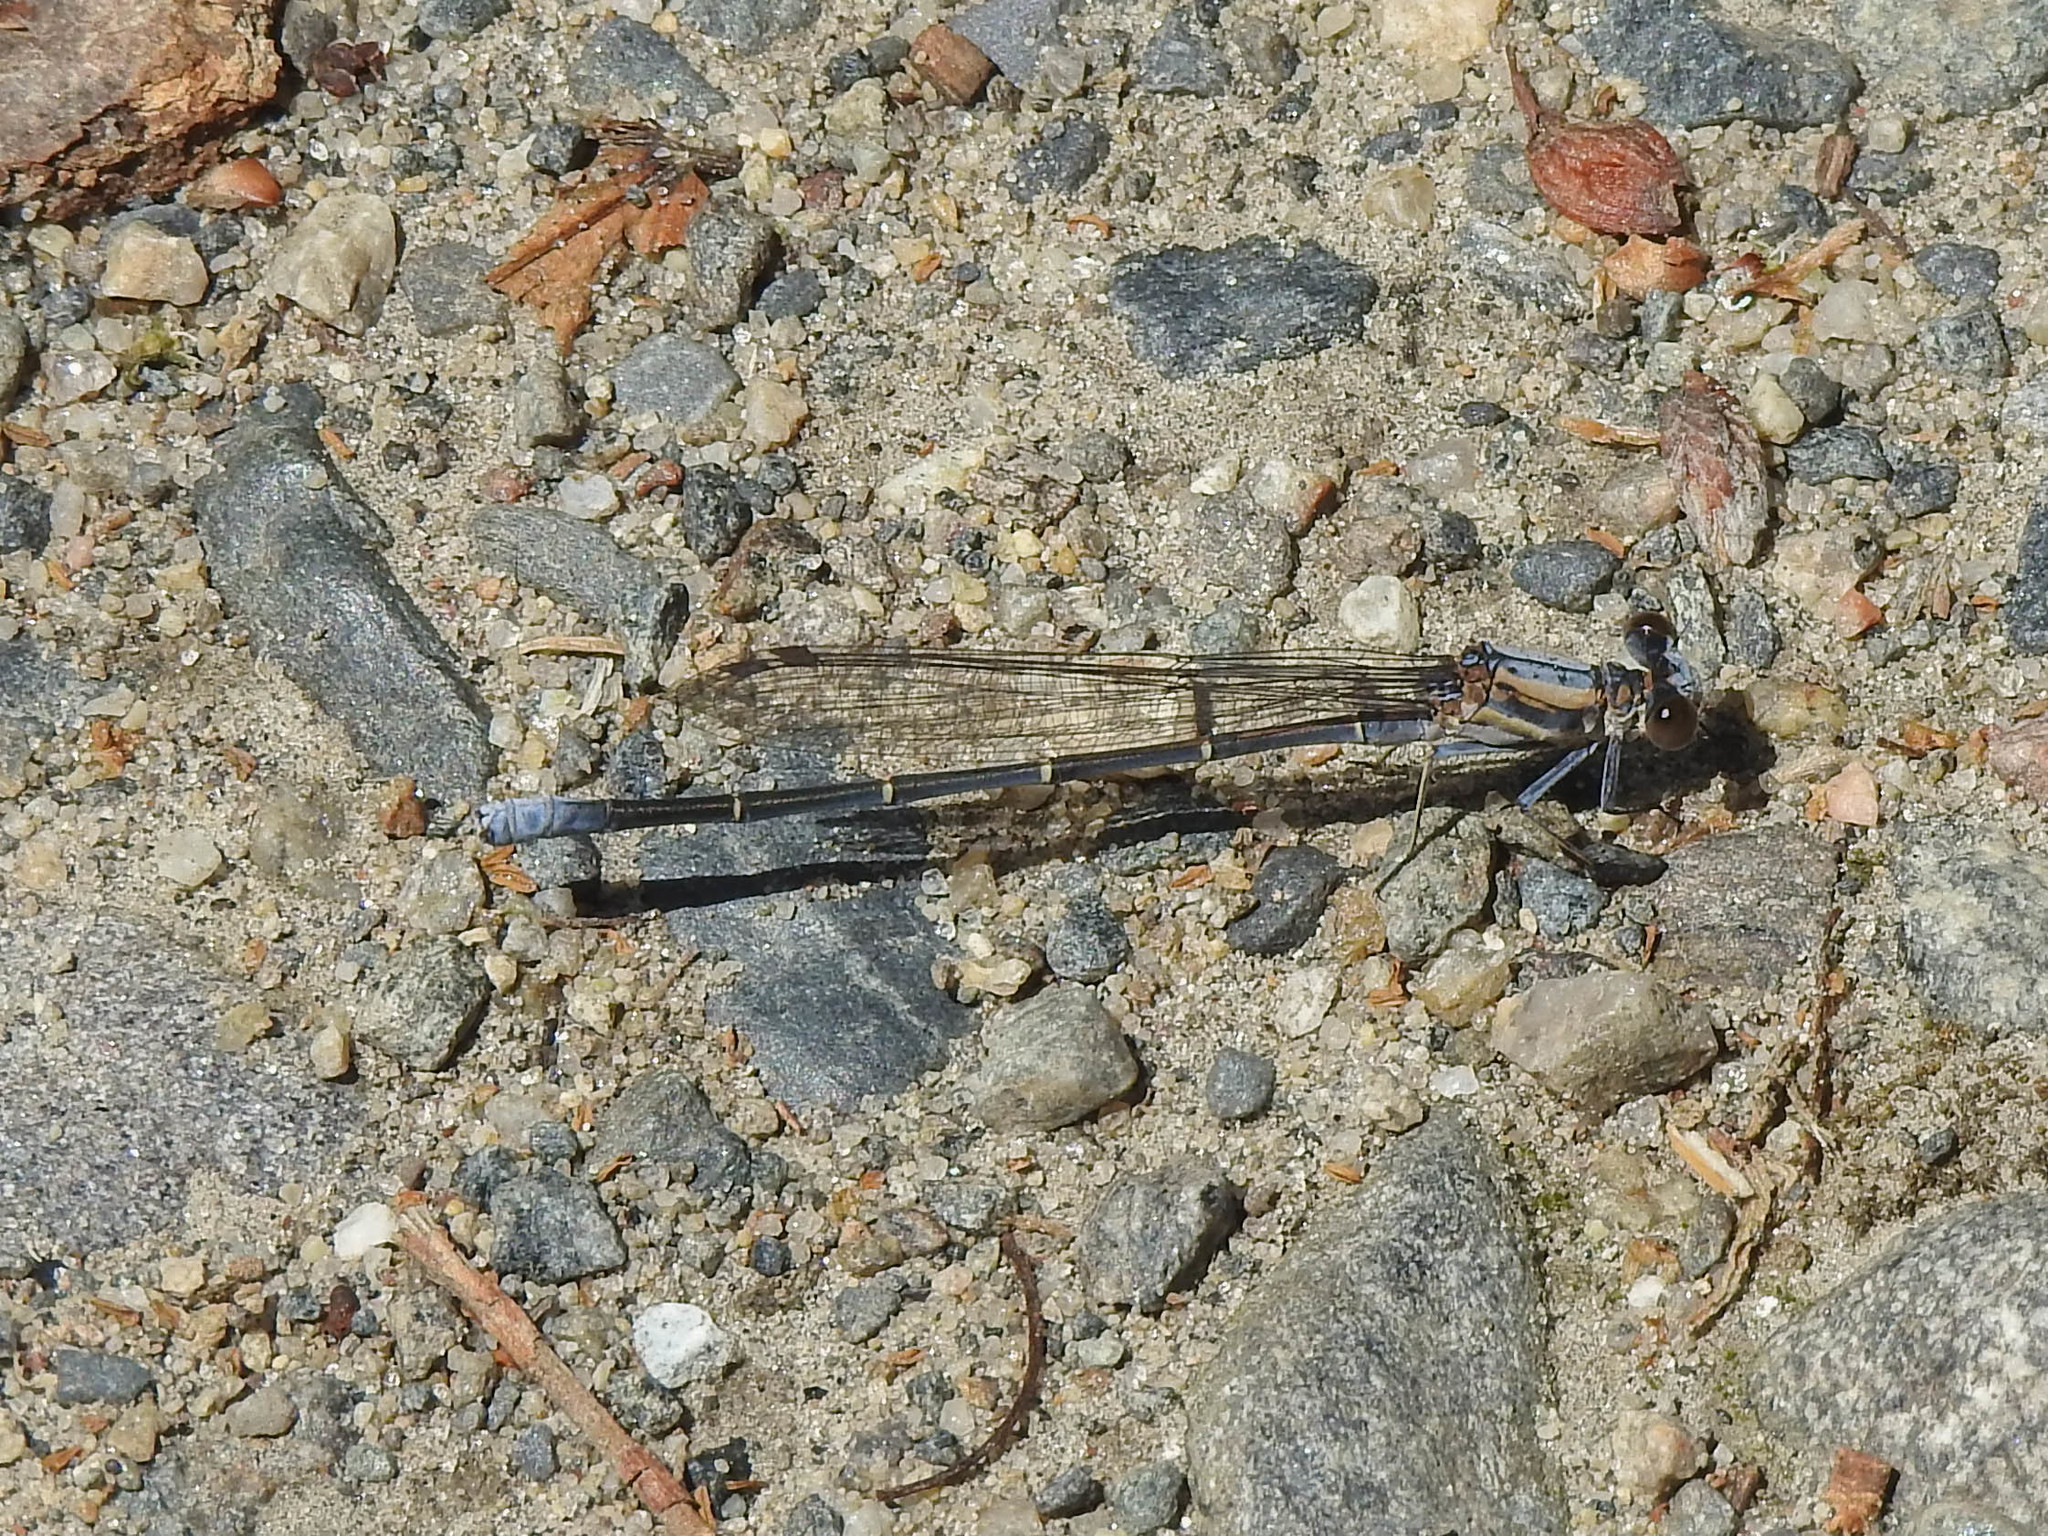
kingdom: Animalia
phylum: Arthropoda
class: Insecta
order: Odonata
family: Coenagrionidae
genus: Argia
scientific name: Argia moesta
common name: Powdered dancer
